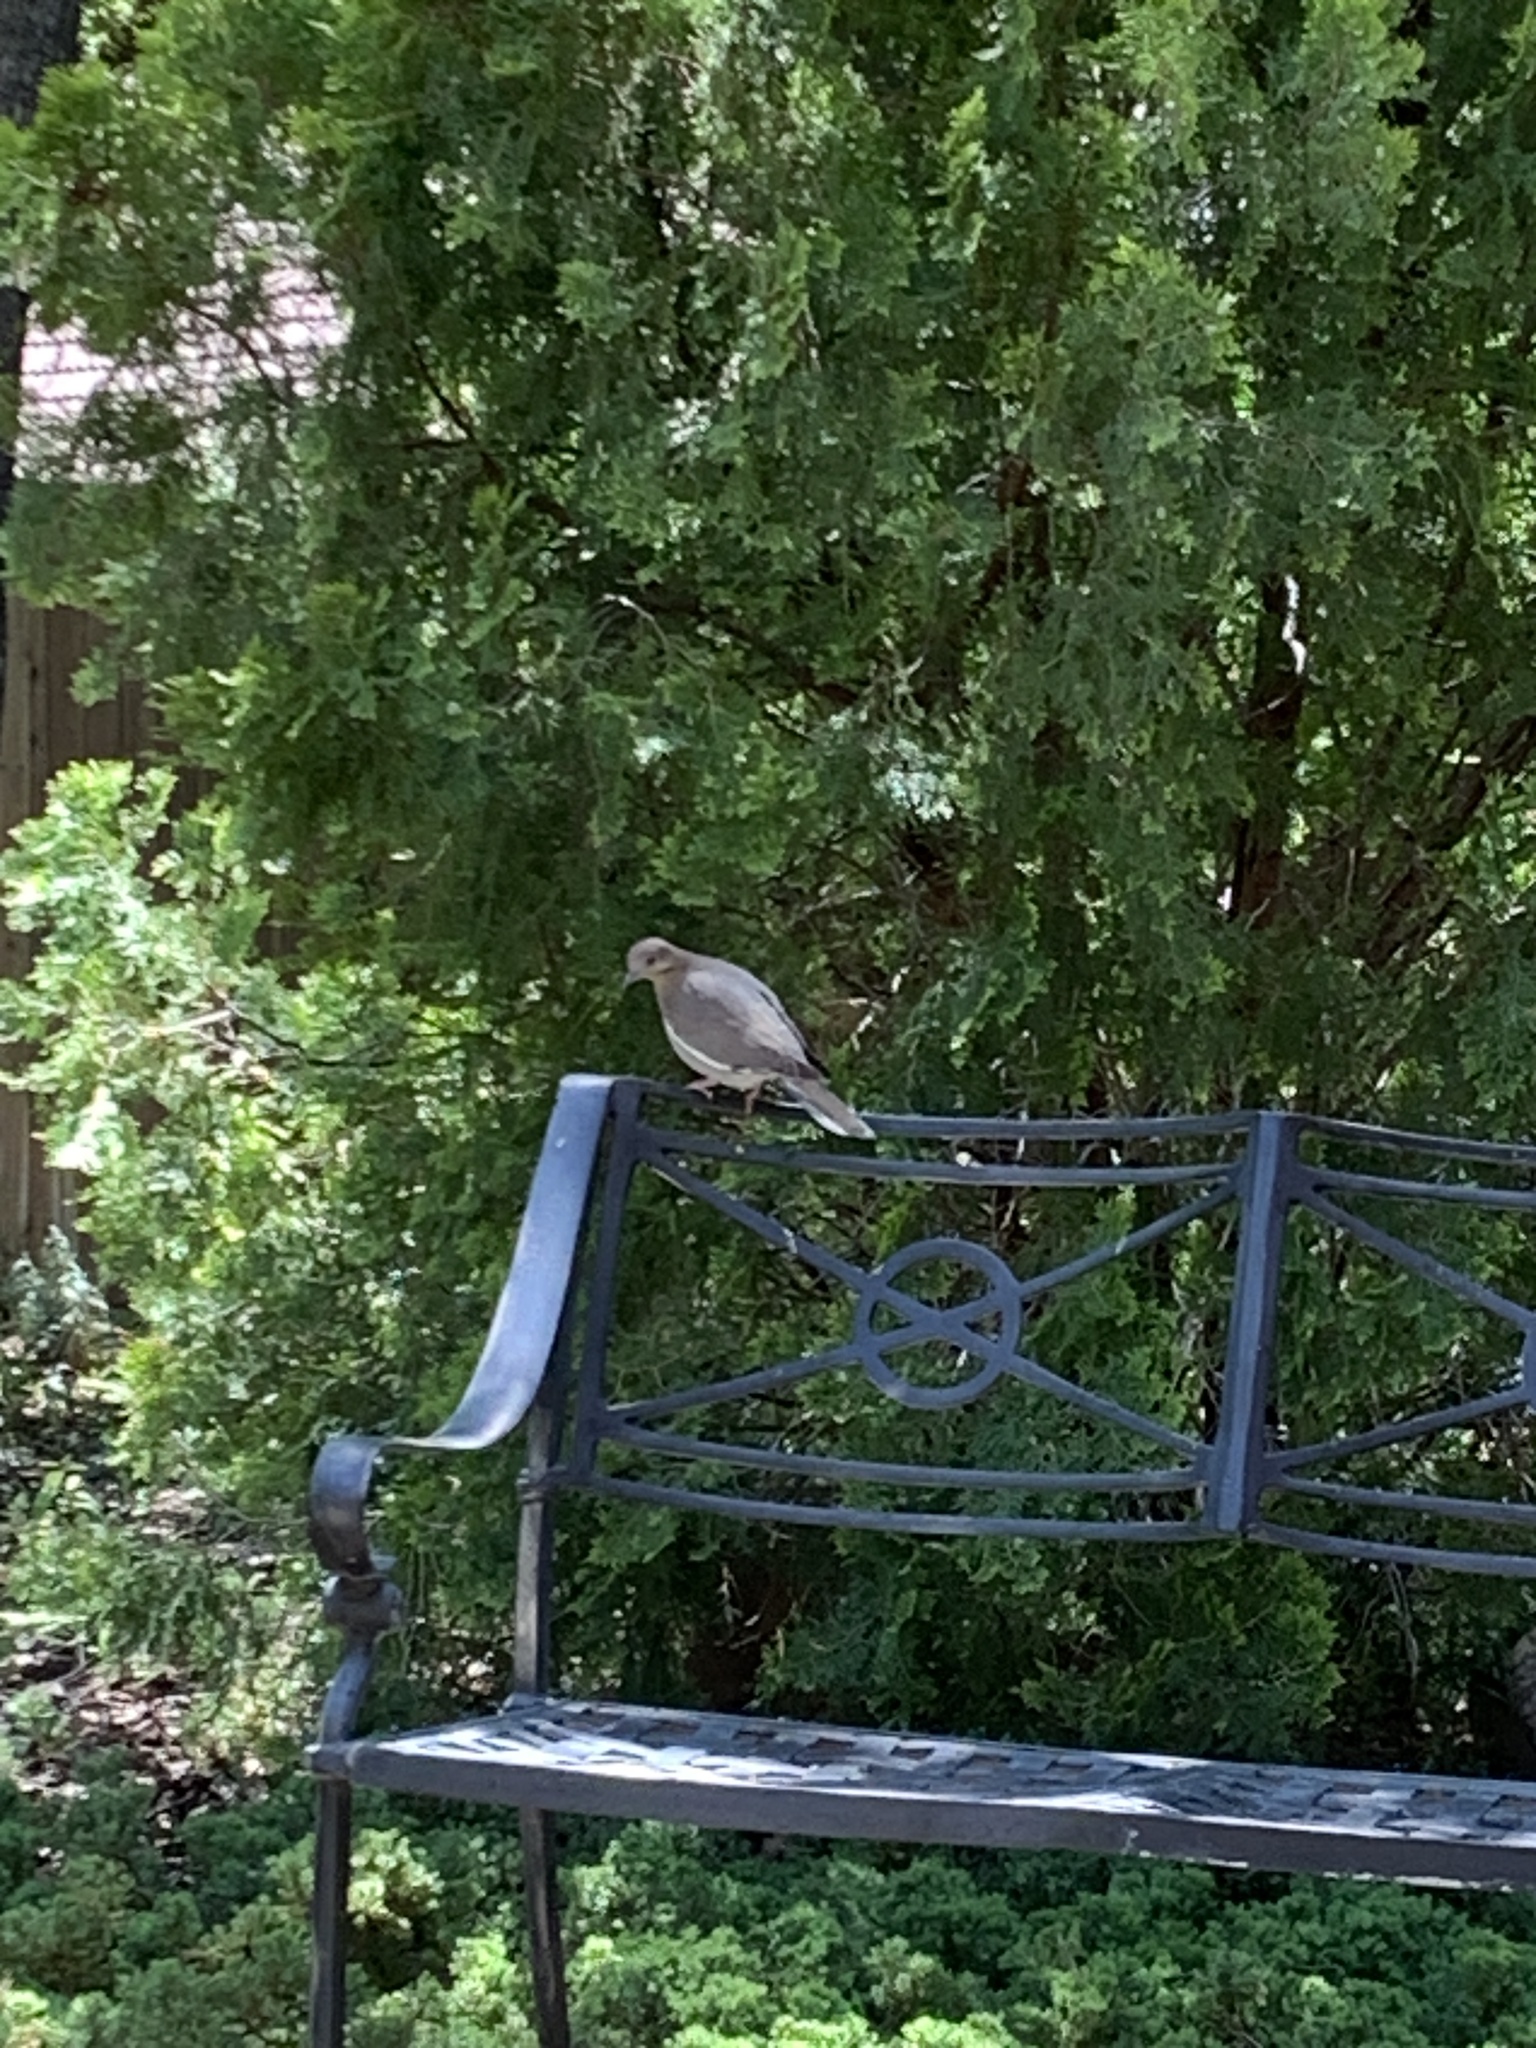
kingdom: Animalia
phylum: Chordata
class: Aves
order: Columbiformes
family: Columbidae
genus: Zenaida
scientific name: Zenaida asiatica
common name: White-winged dove
